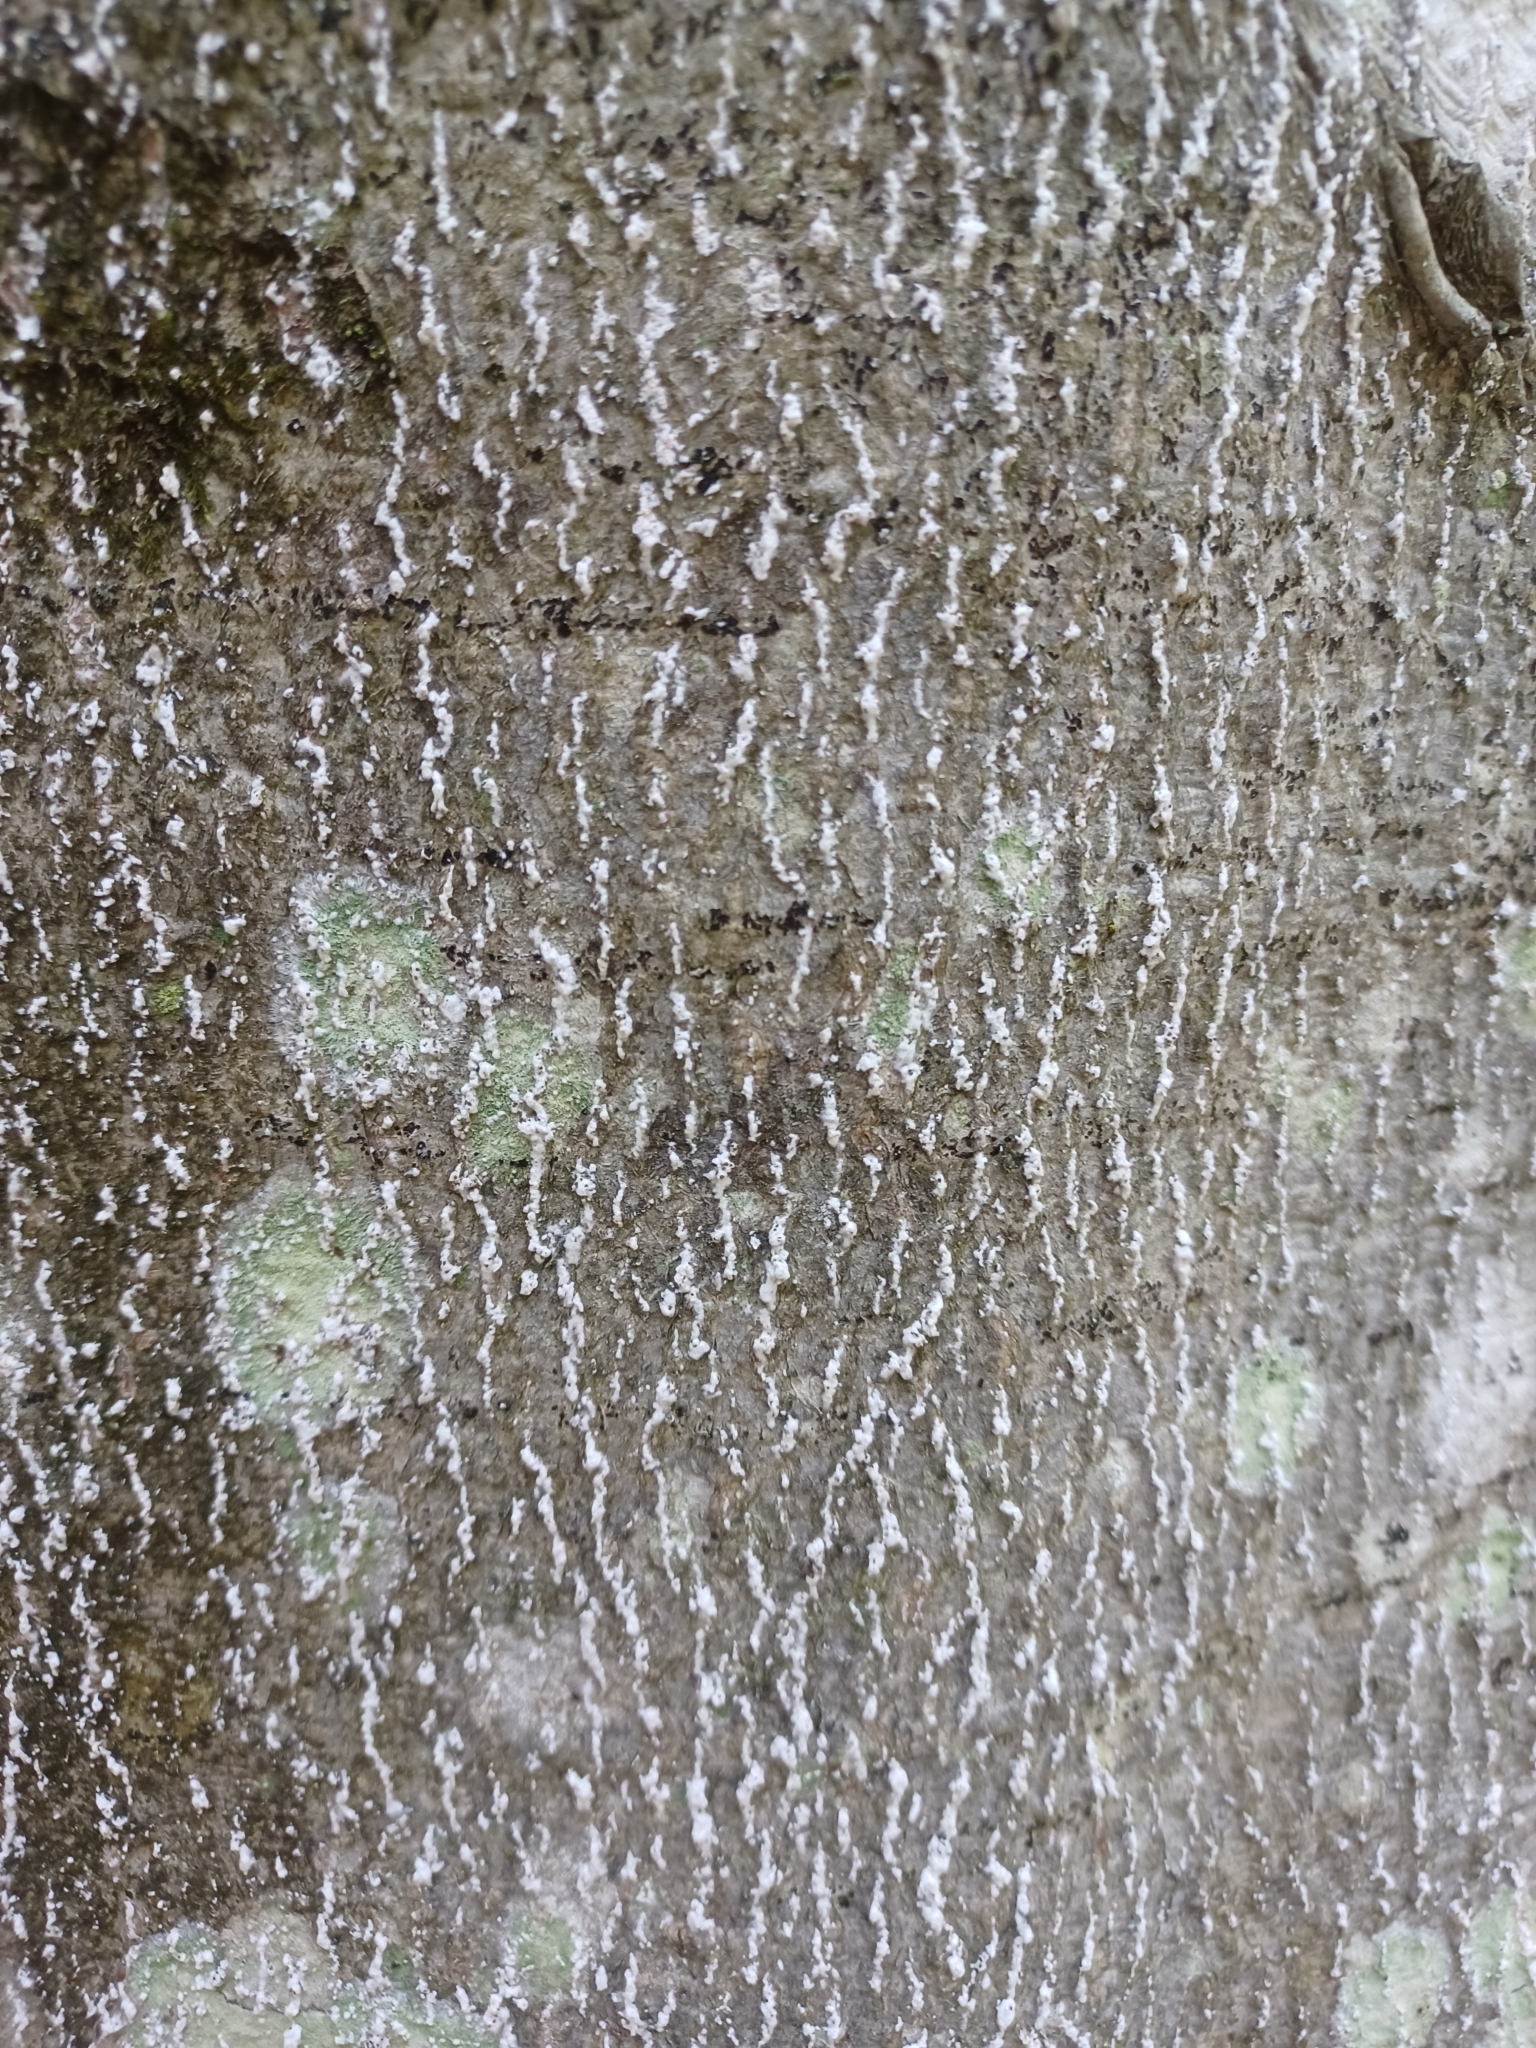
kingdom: Animalia
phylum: Arthropoda
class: Insecta
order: Hemiptera
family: Eriococcidae
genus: Cryptococcus
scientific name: Cryptococcus fagisuga
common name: Beech scale
